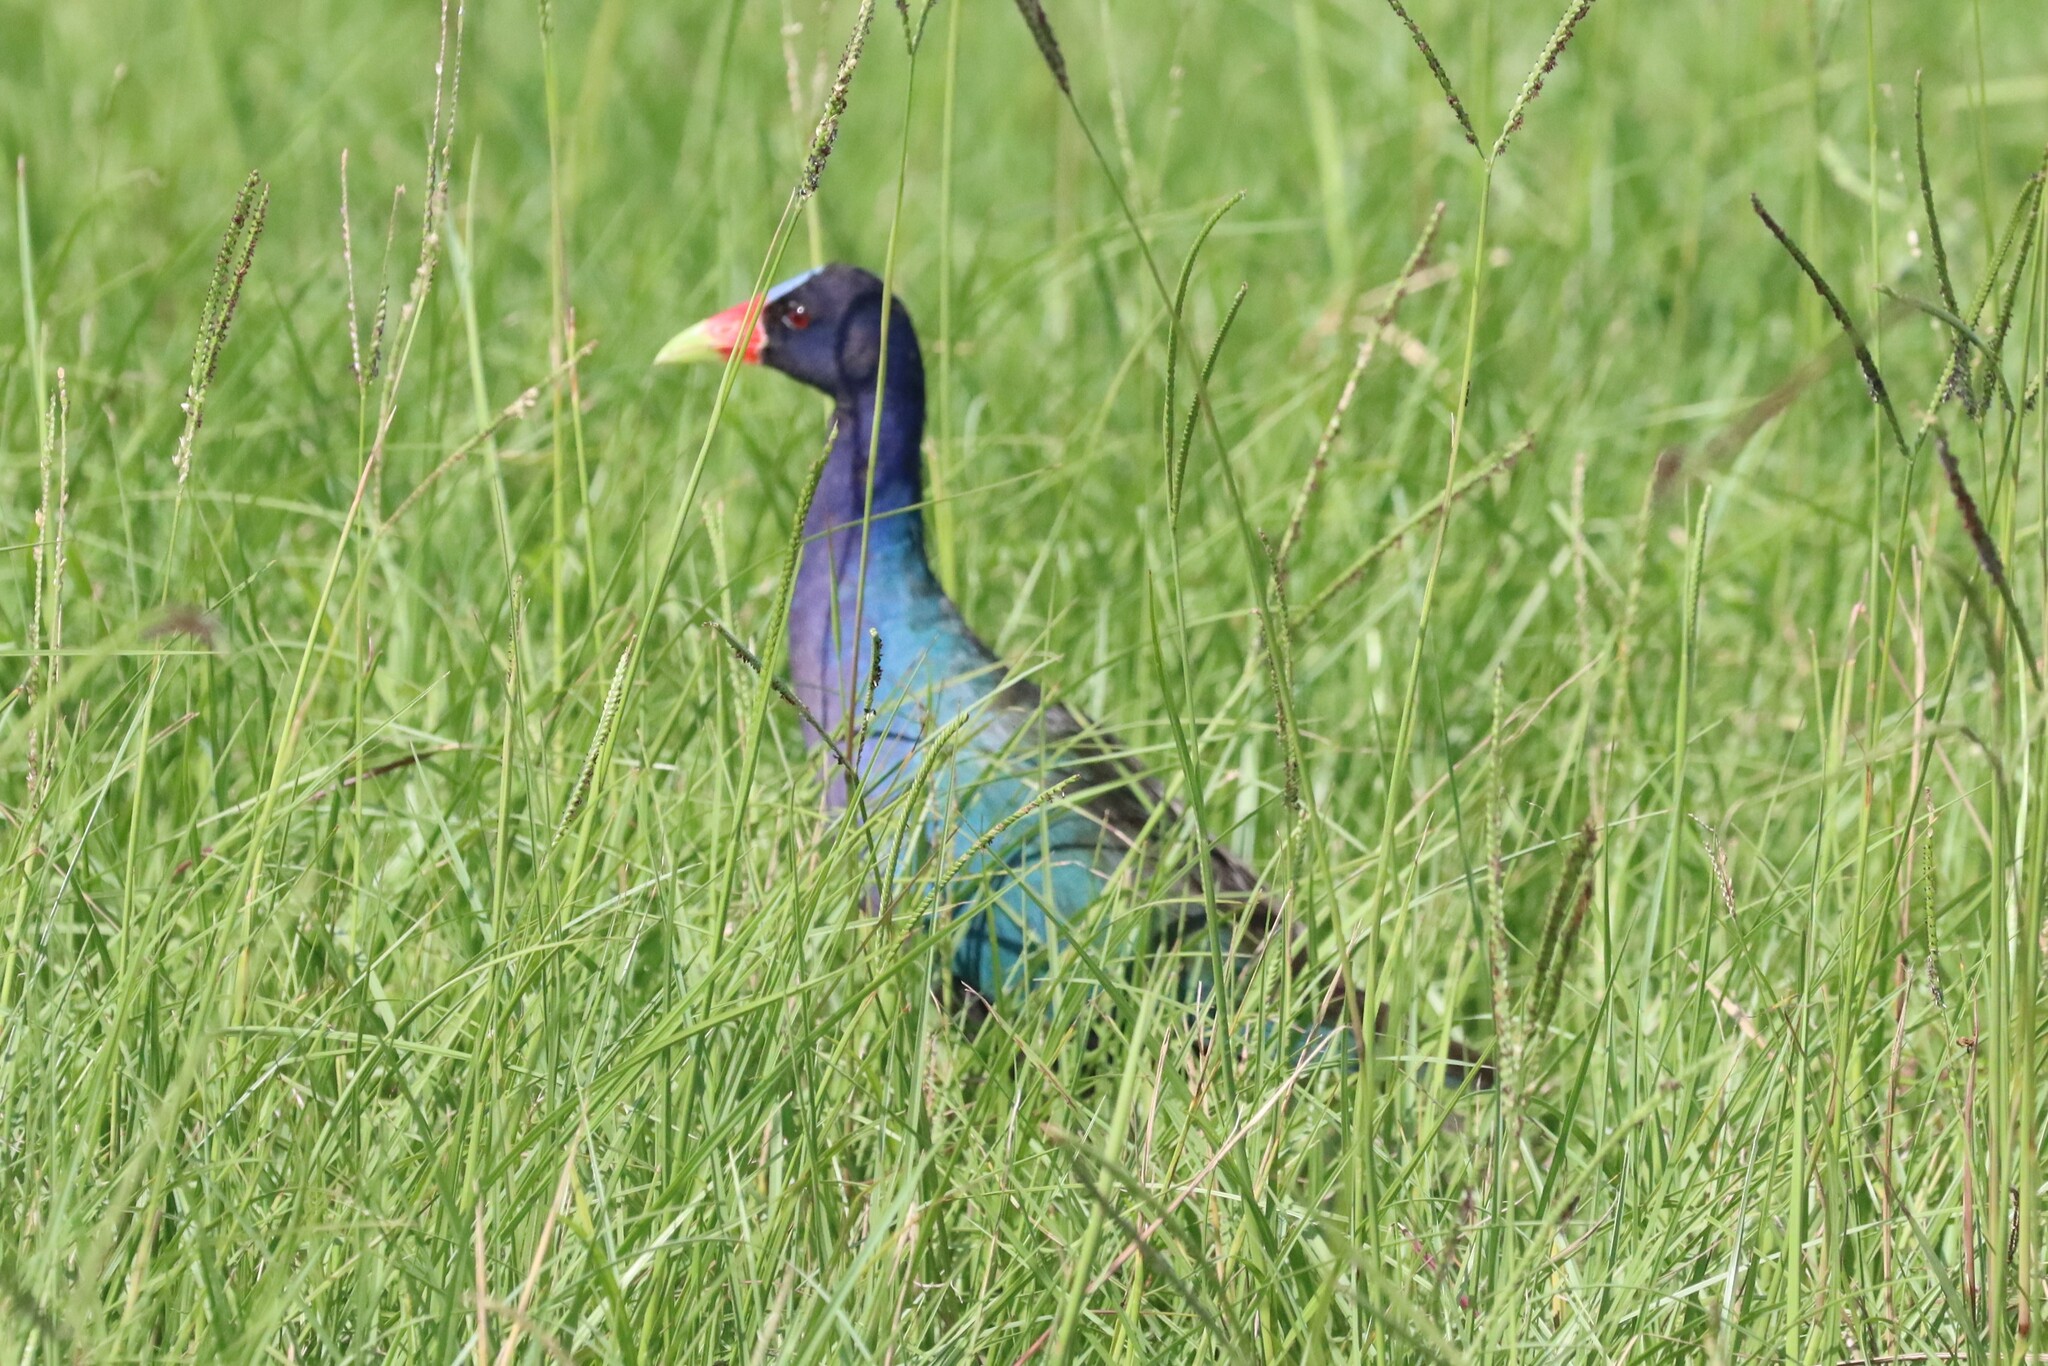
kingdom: Animalia
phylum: Chordata
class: Aves
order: Gruiformes
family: Rallidae
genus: Porphyrio
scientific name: Porphyrio martinica
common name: Purple gallinule
